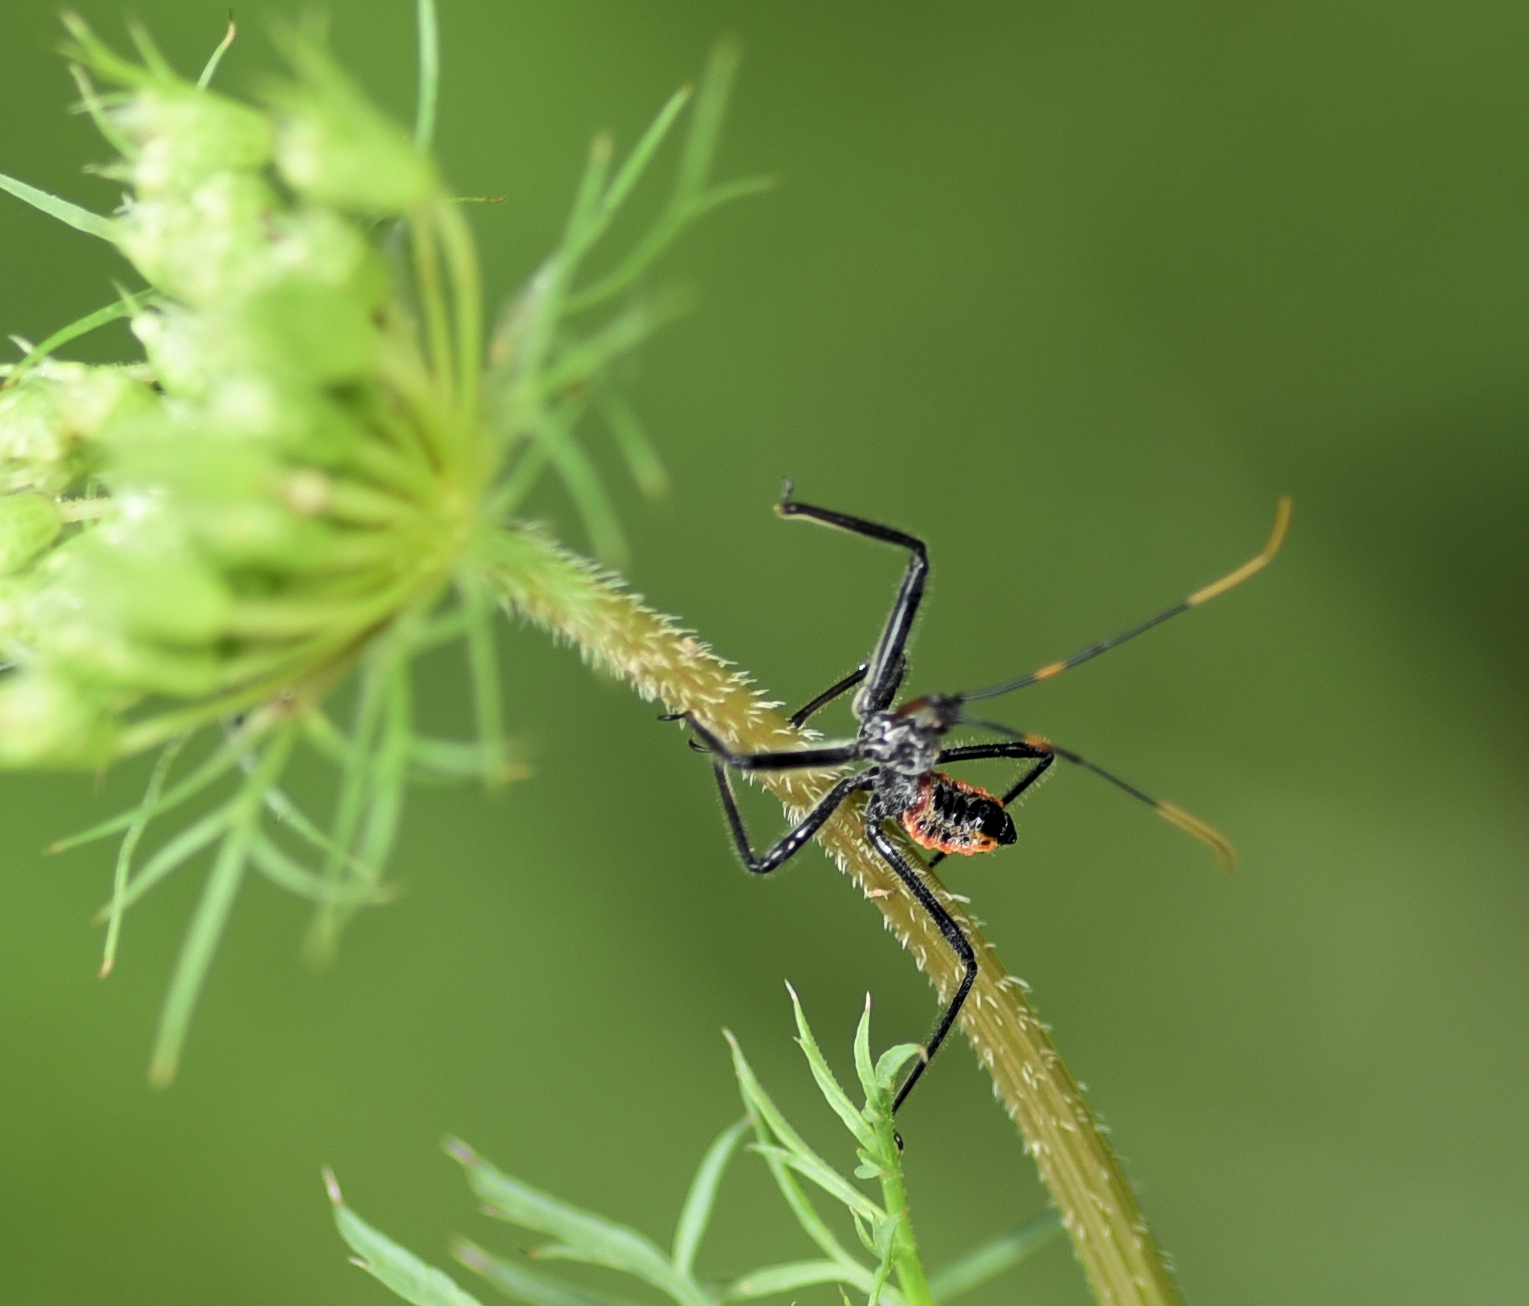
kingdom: Animalia
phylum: Arthropoda
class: Insecta
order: Hemiptera
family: Reduviidae
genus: Arilus
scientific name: Arilus cristatus
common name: North american wheel bug
